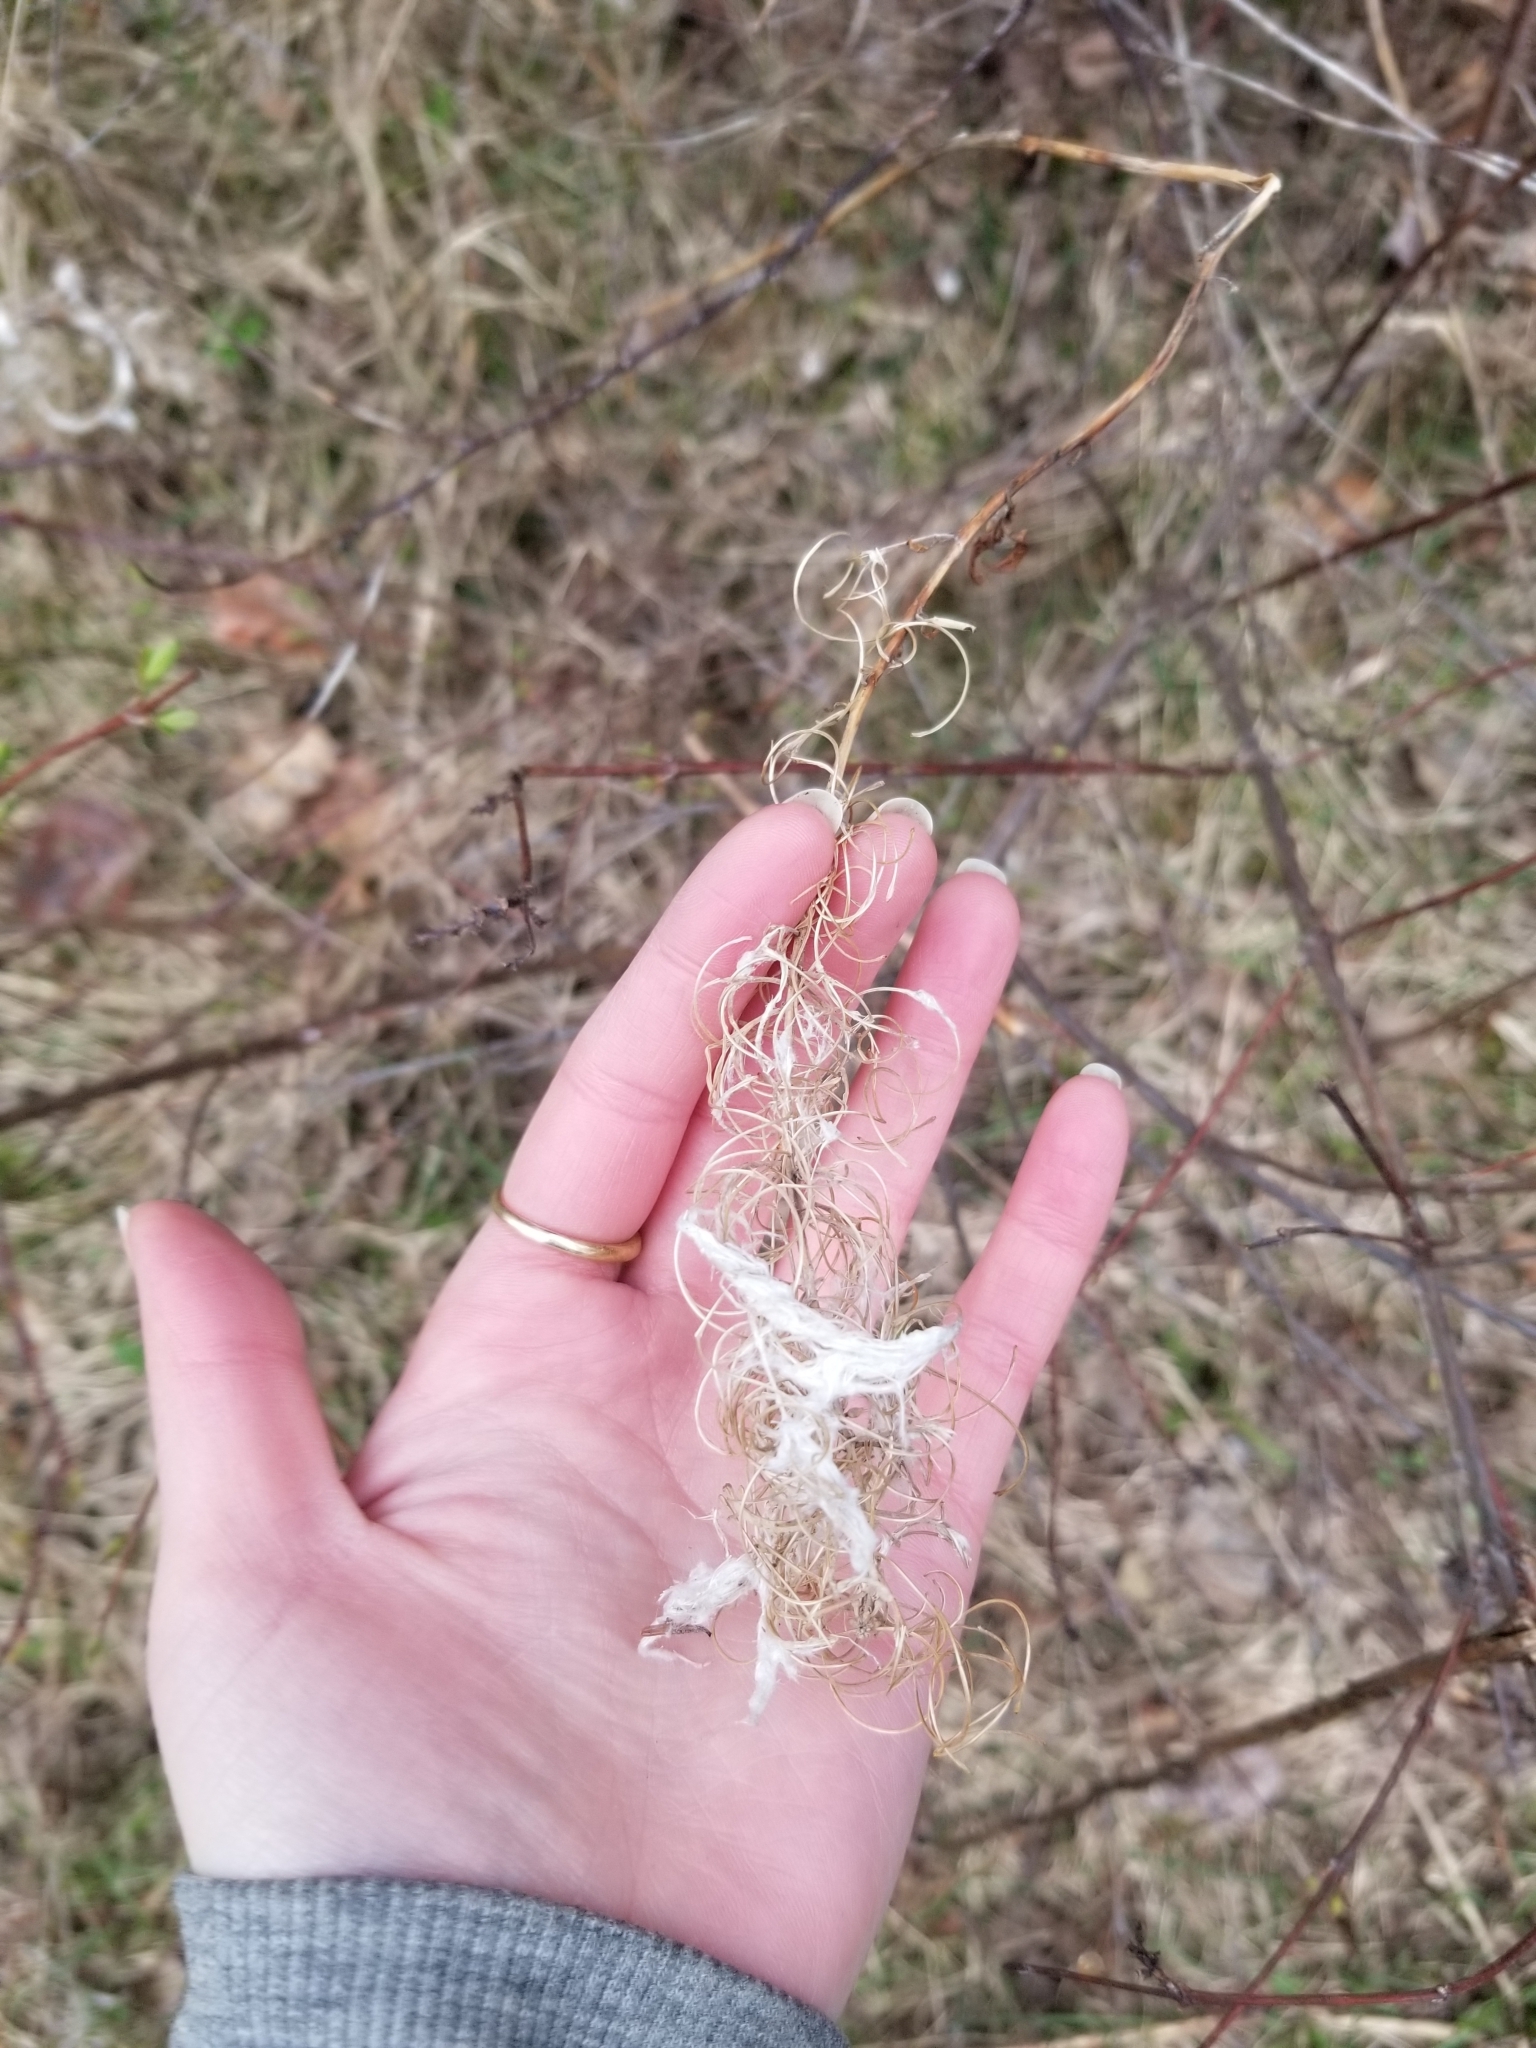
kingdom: Plantae
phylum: Tracheophyta
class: Magnoliopsida
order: Myrtales
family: Onagraceae
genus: Chamaenerion
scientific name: Chamaenerion angustifolium
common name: Fireweed
